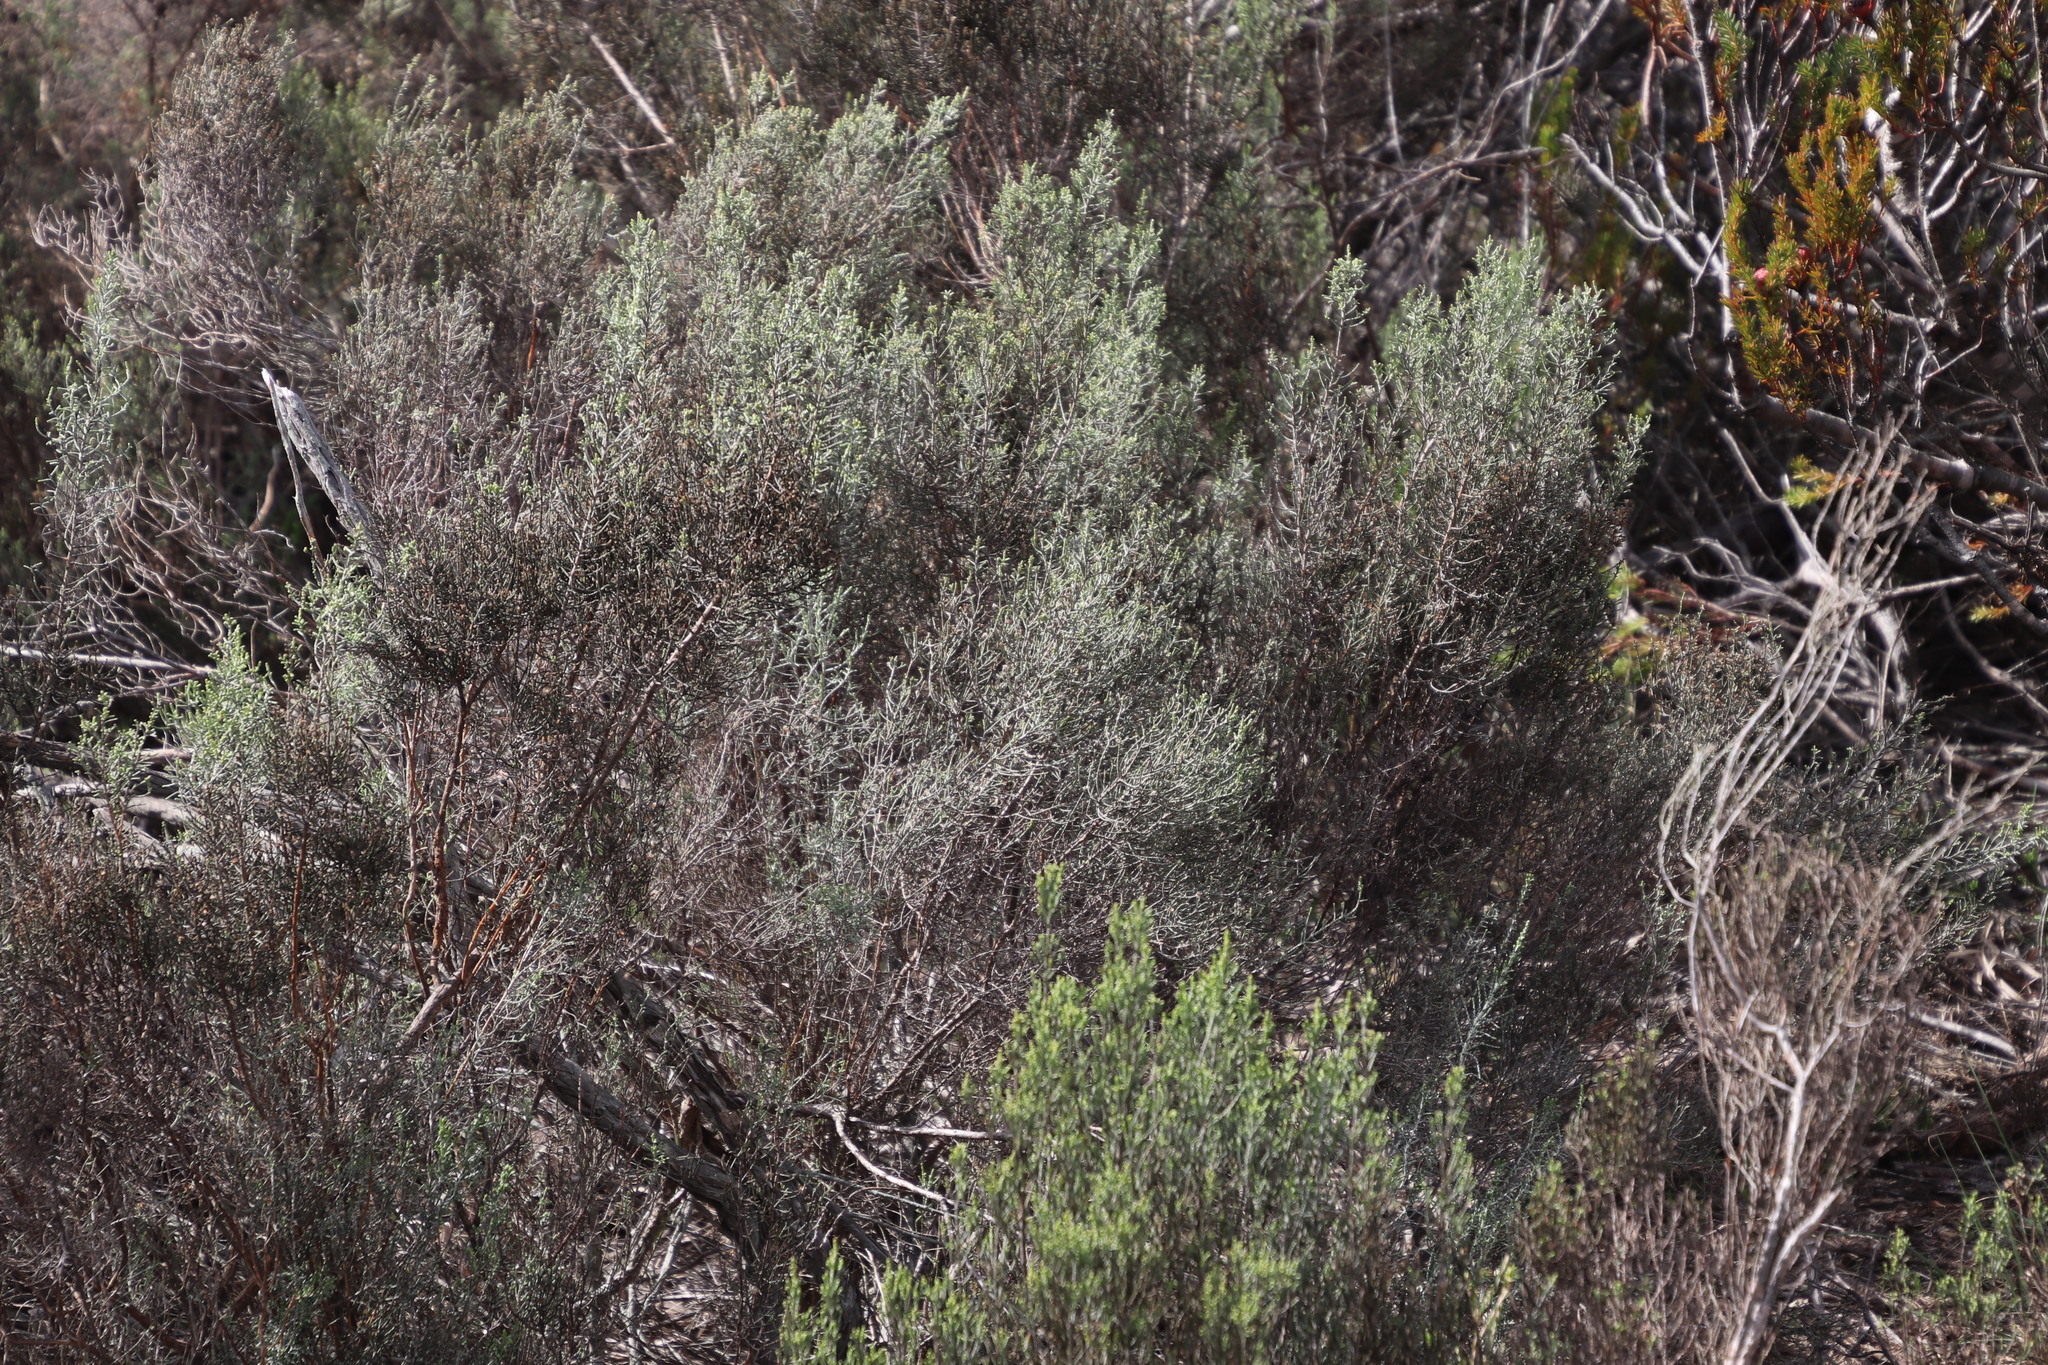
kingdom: Plantae
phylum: Tracheophyta
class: Magnoliopsida
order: Asterales
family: Asteraceae
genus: Dicerothamnus
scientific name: Dicerothamnus rhinocerotis
